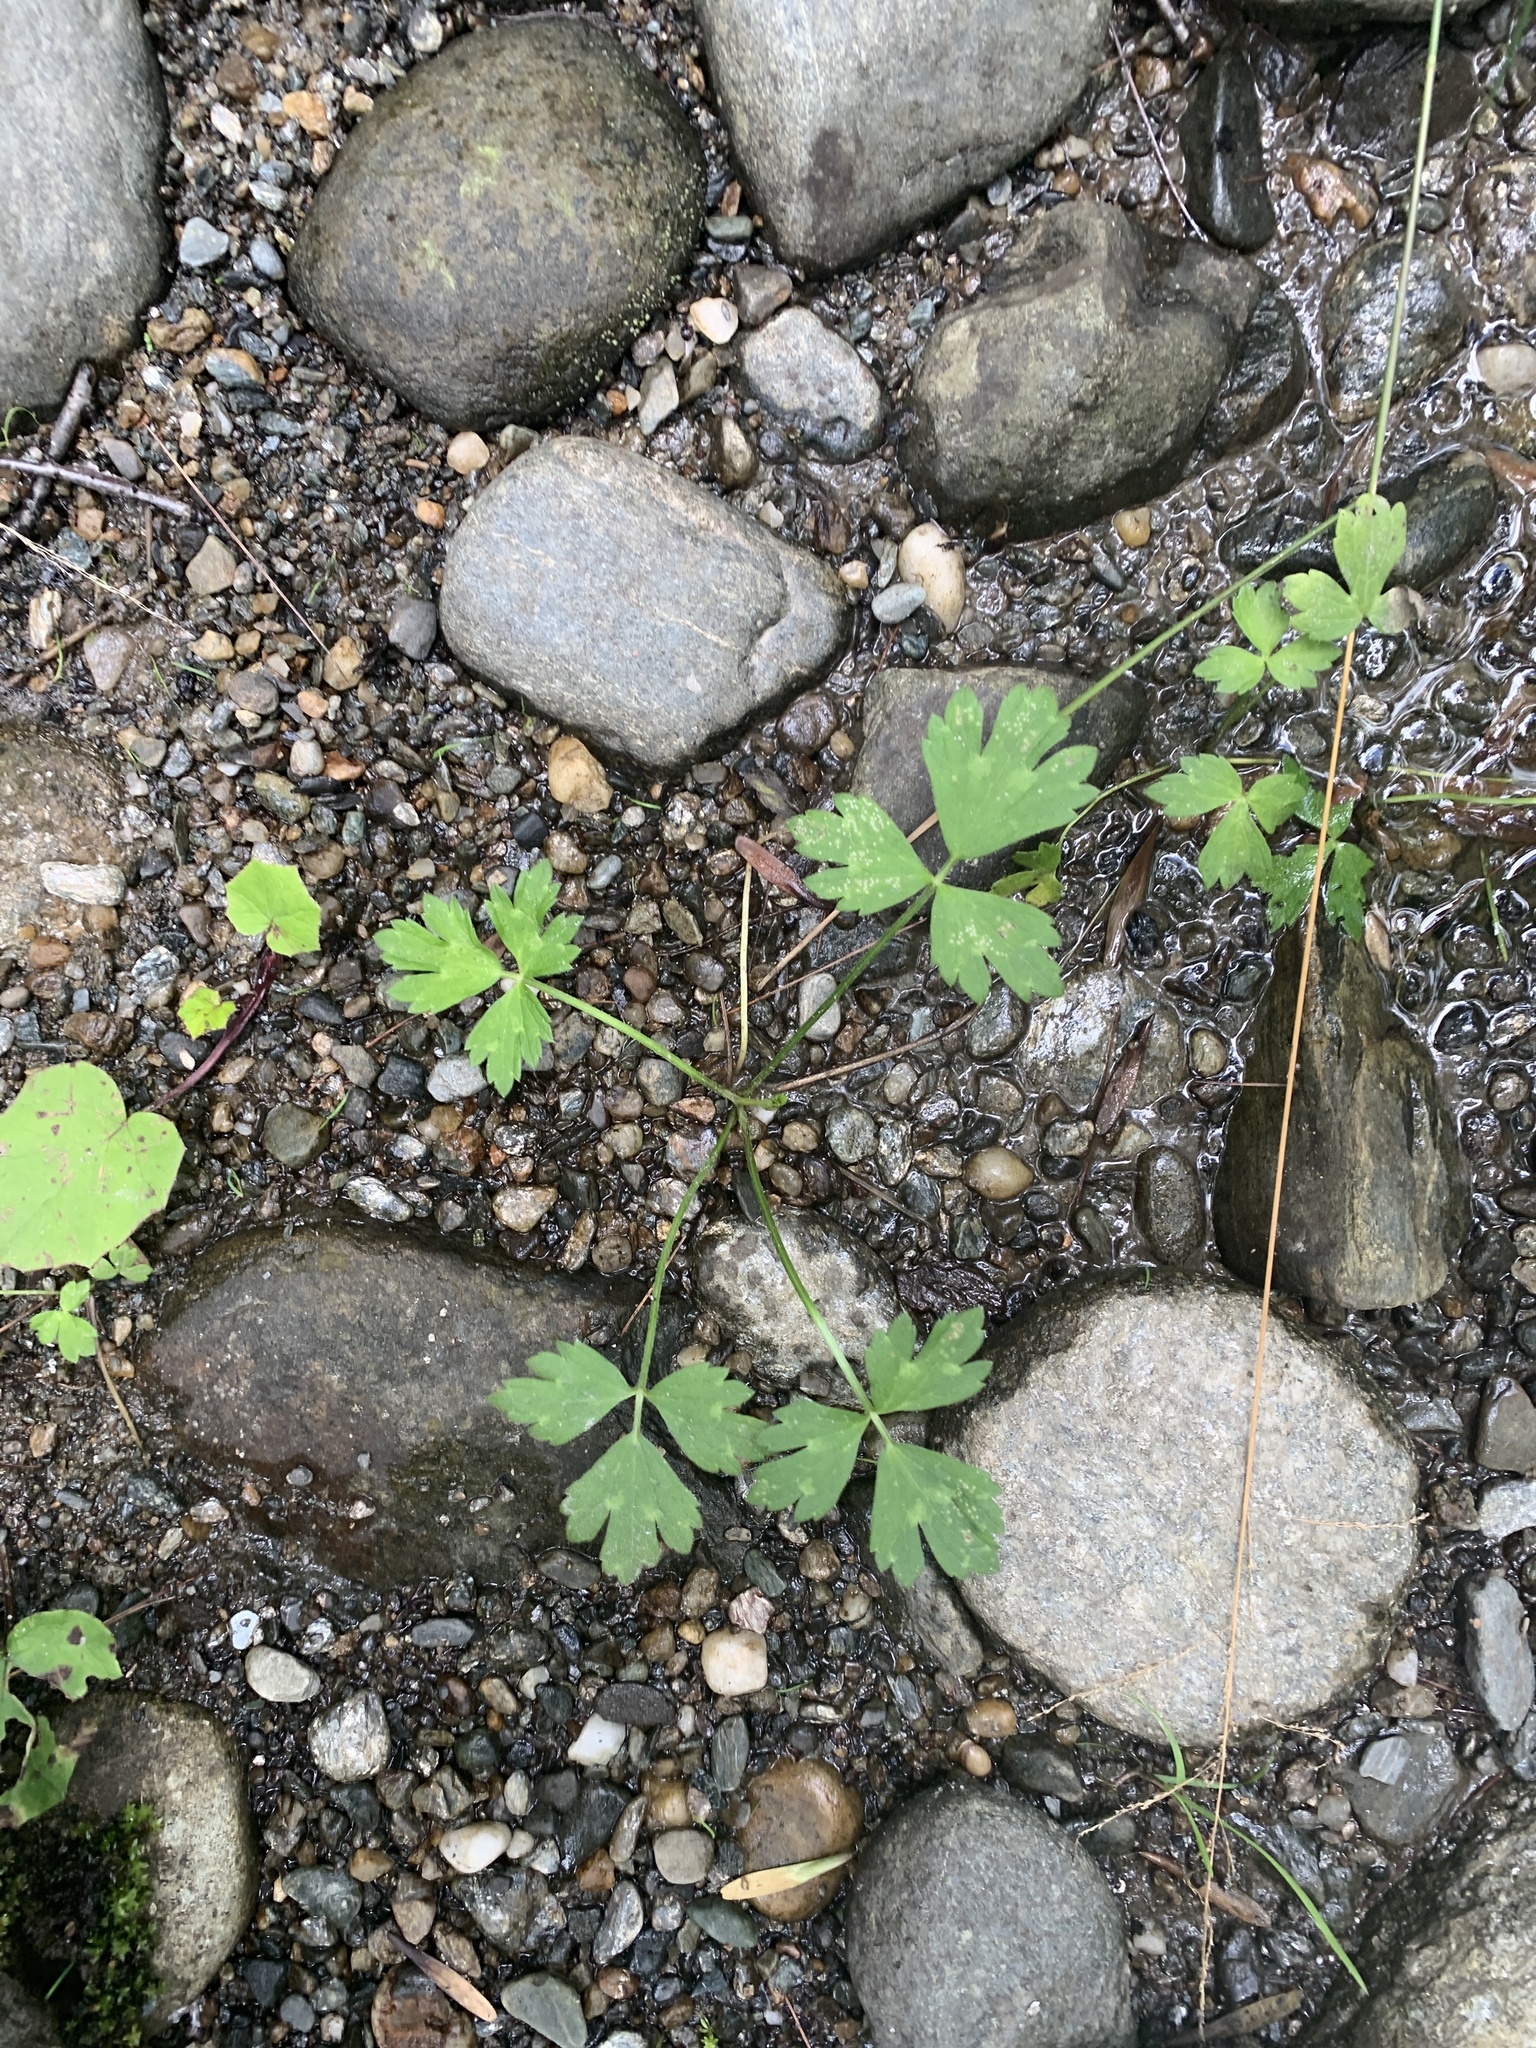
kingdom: Plantae
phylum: Tracheophyta
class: Magnoliopsida
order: Ranunculales
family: Ranunculaceae
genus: Ranunculus
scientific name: Ranunculus repens
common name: Creeping buttercup
